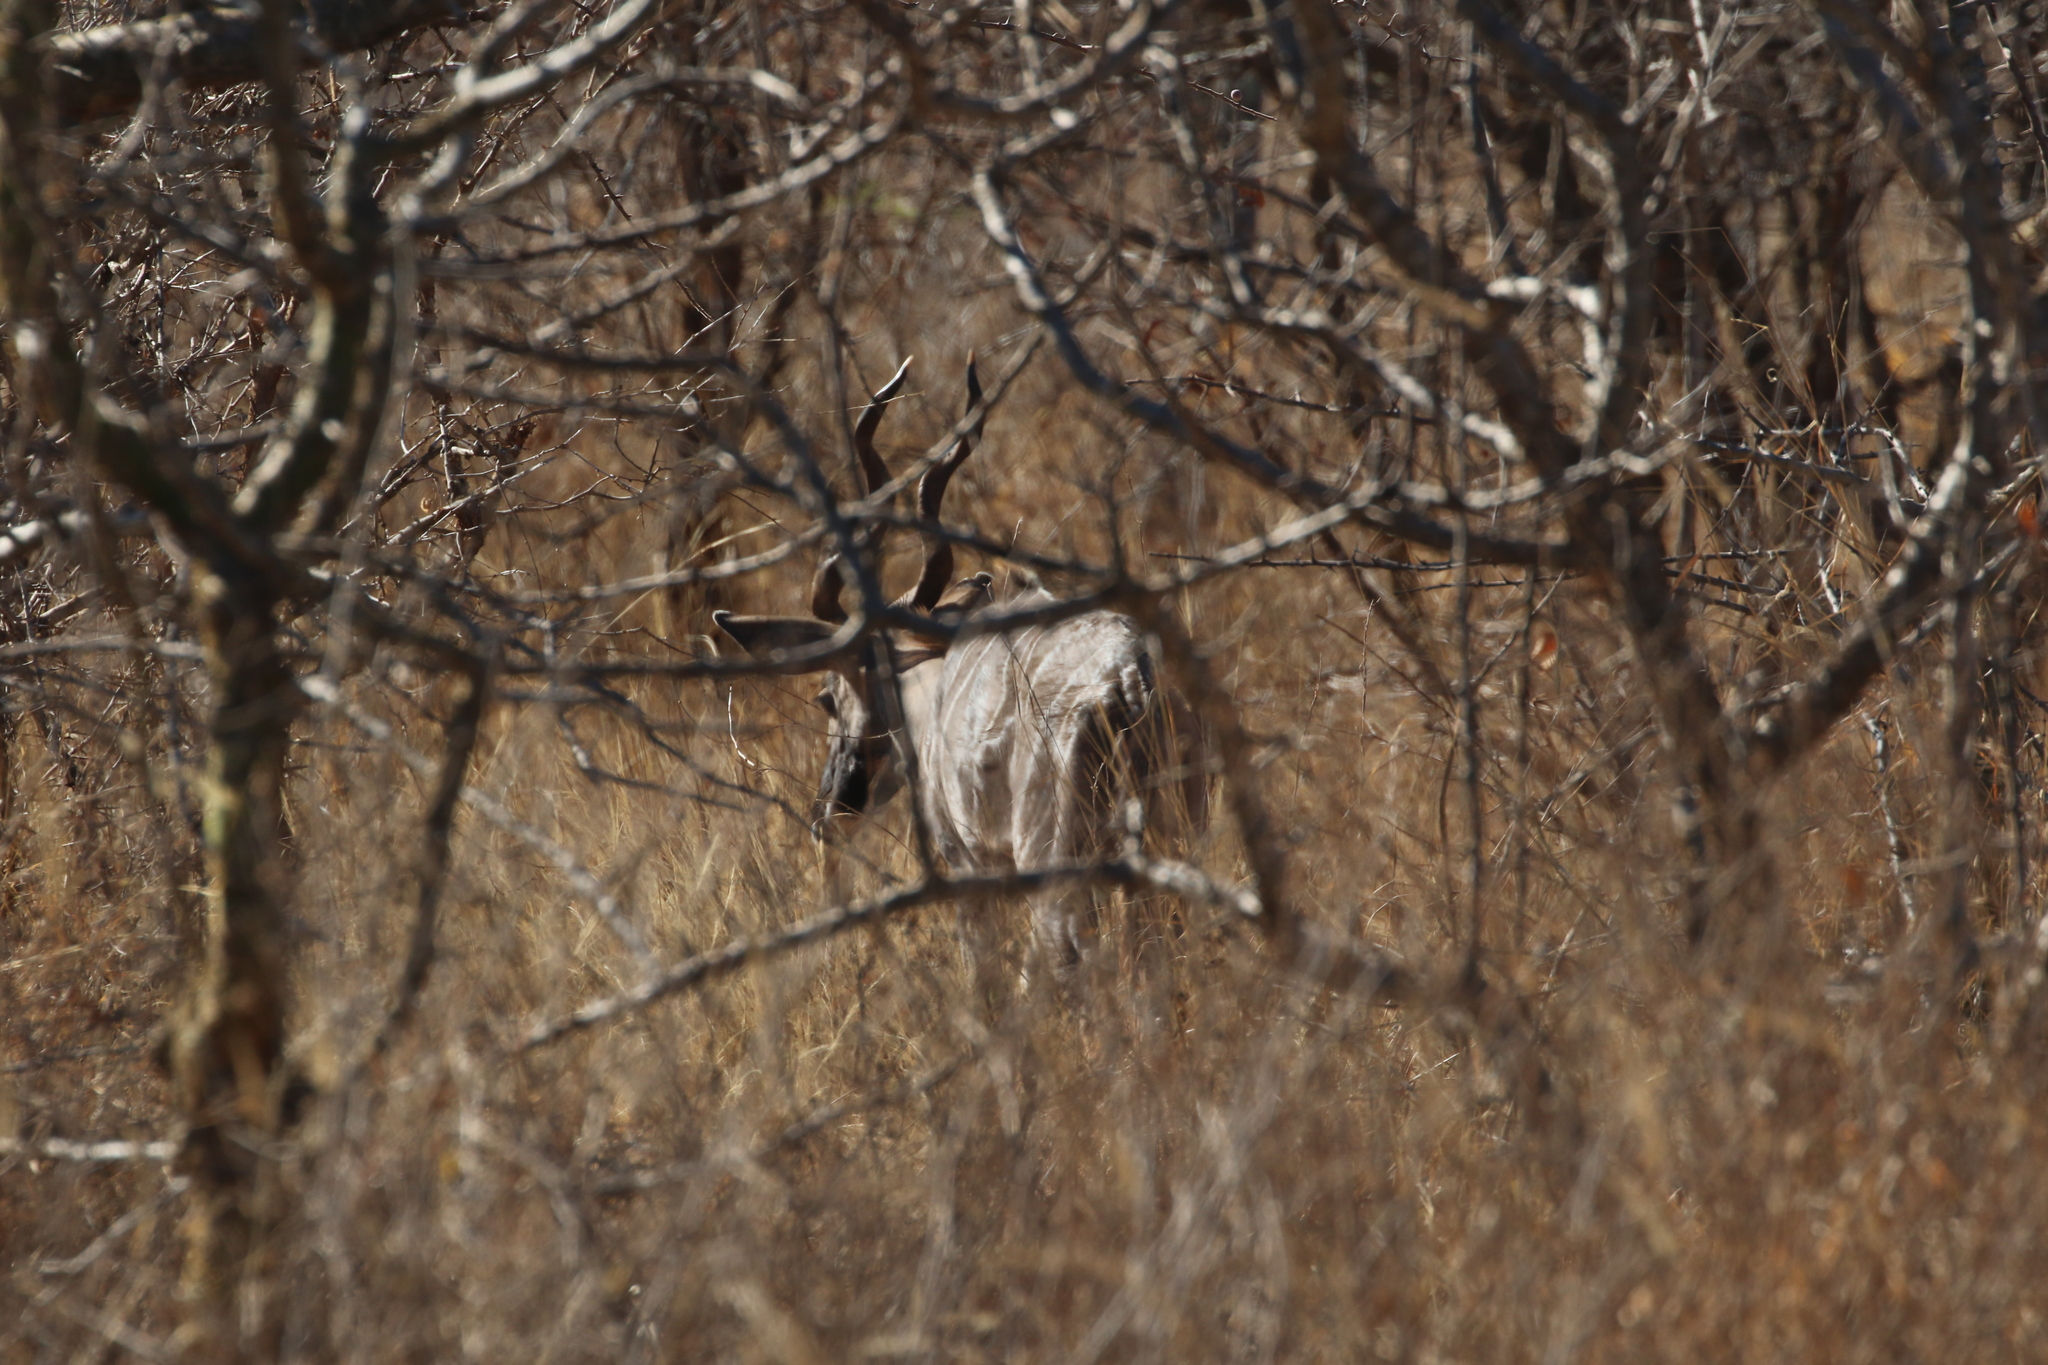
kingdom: Animalia
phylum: Chordata
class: Mammalia
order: Artiodactyla
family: Bovidae
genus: Tragelaphus
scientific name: Tragelaphus imberbis
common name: Lesser kudu
